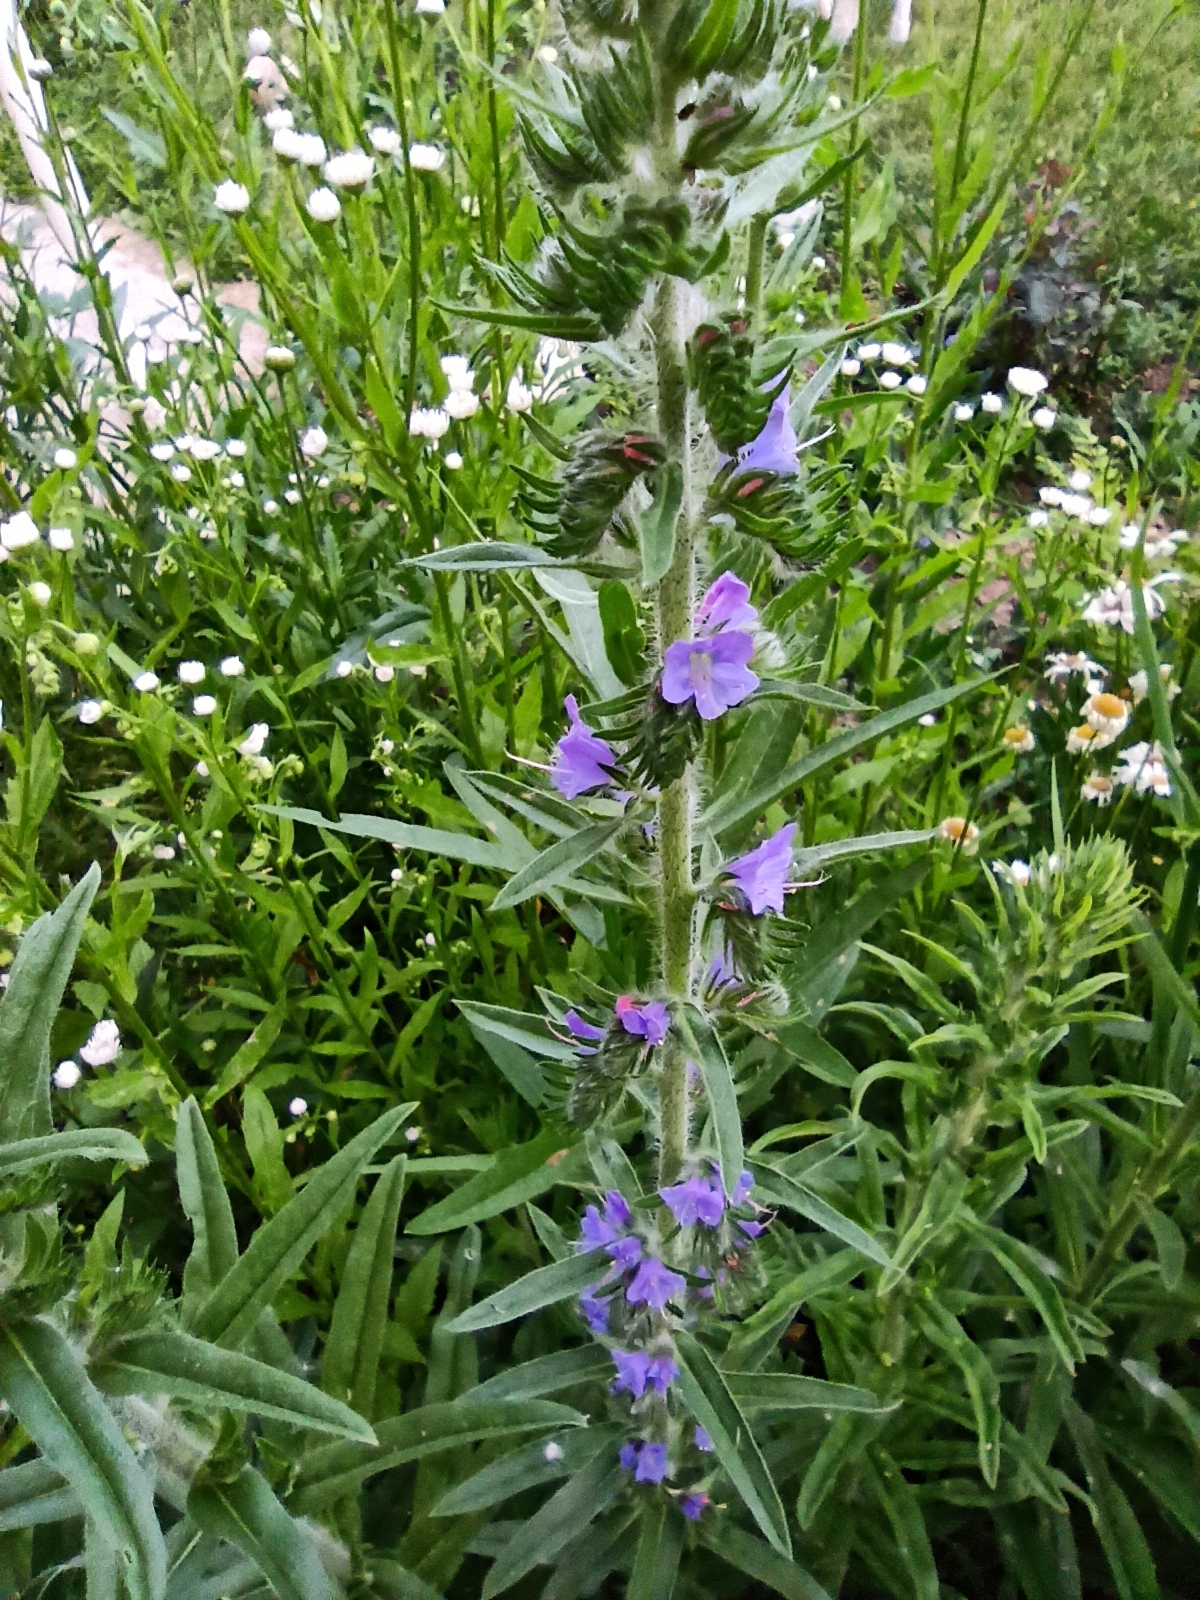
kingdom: Plantae
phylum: Tracheophyta
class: Magnoliopsida
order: Boraginales
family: Boraginaceae
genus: Echium
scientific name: Echium vulgare
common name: Common viper's bugloss
